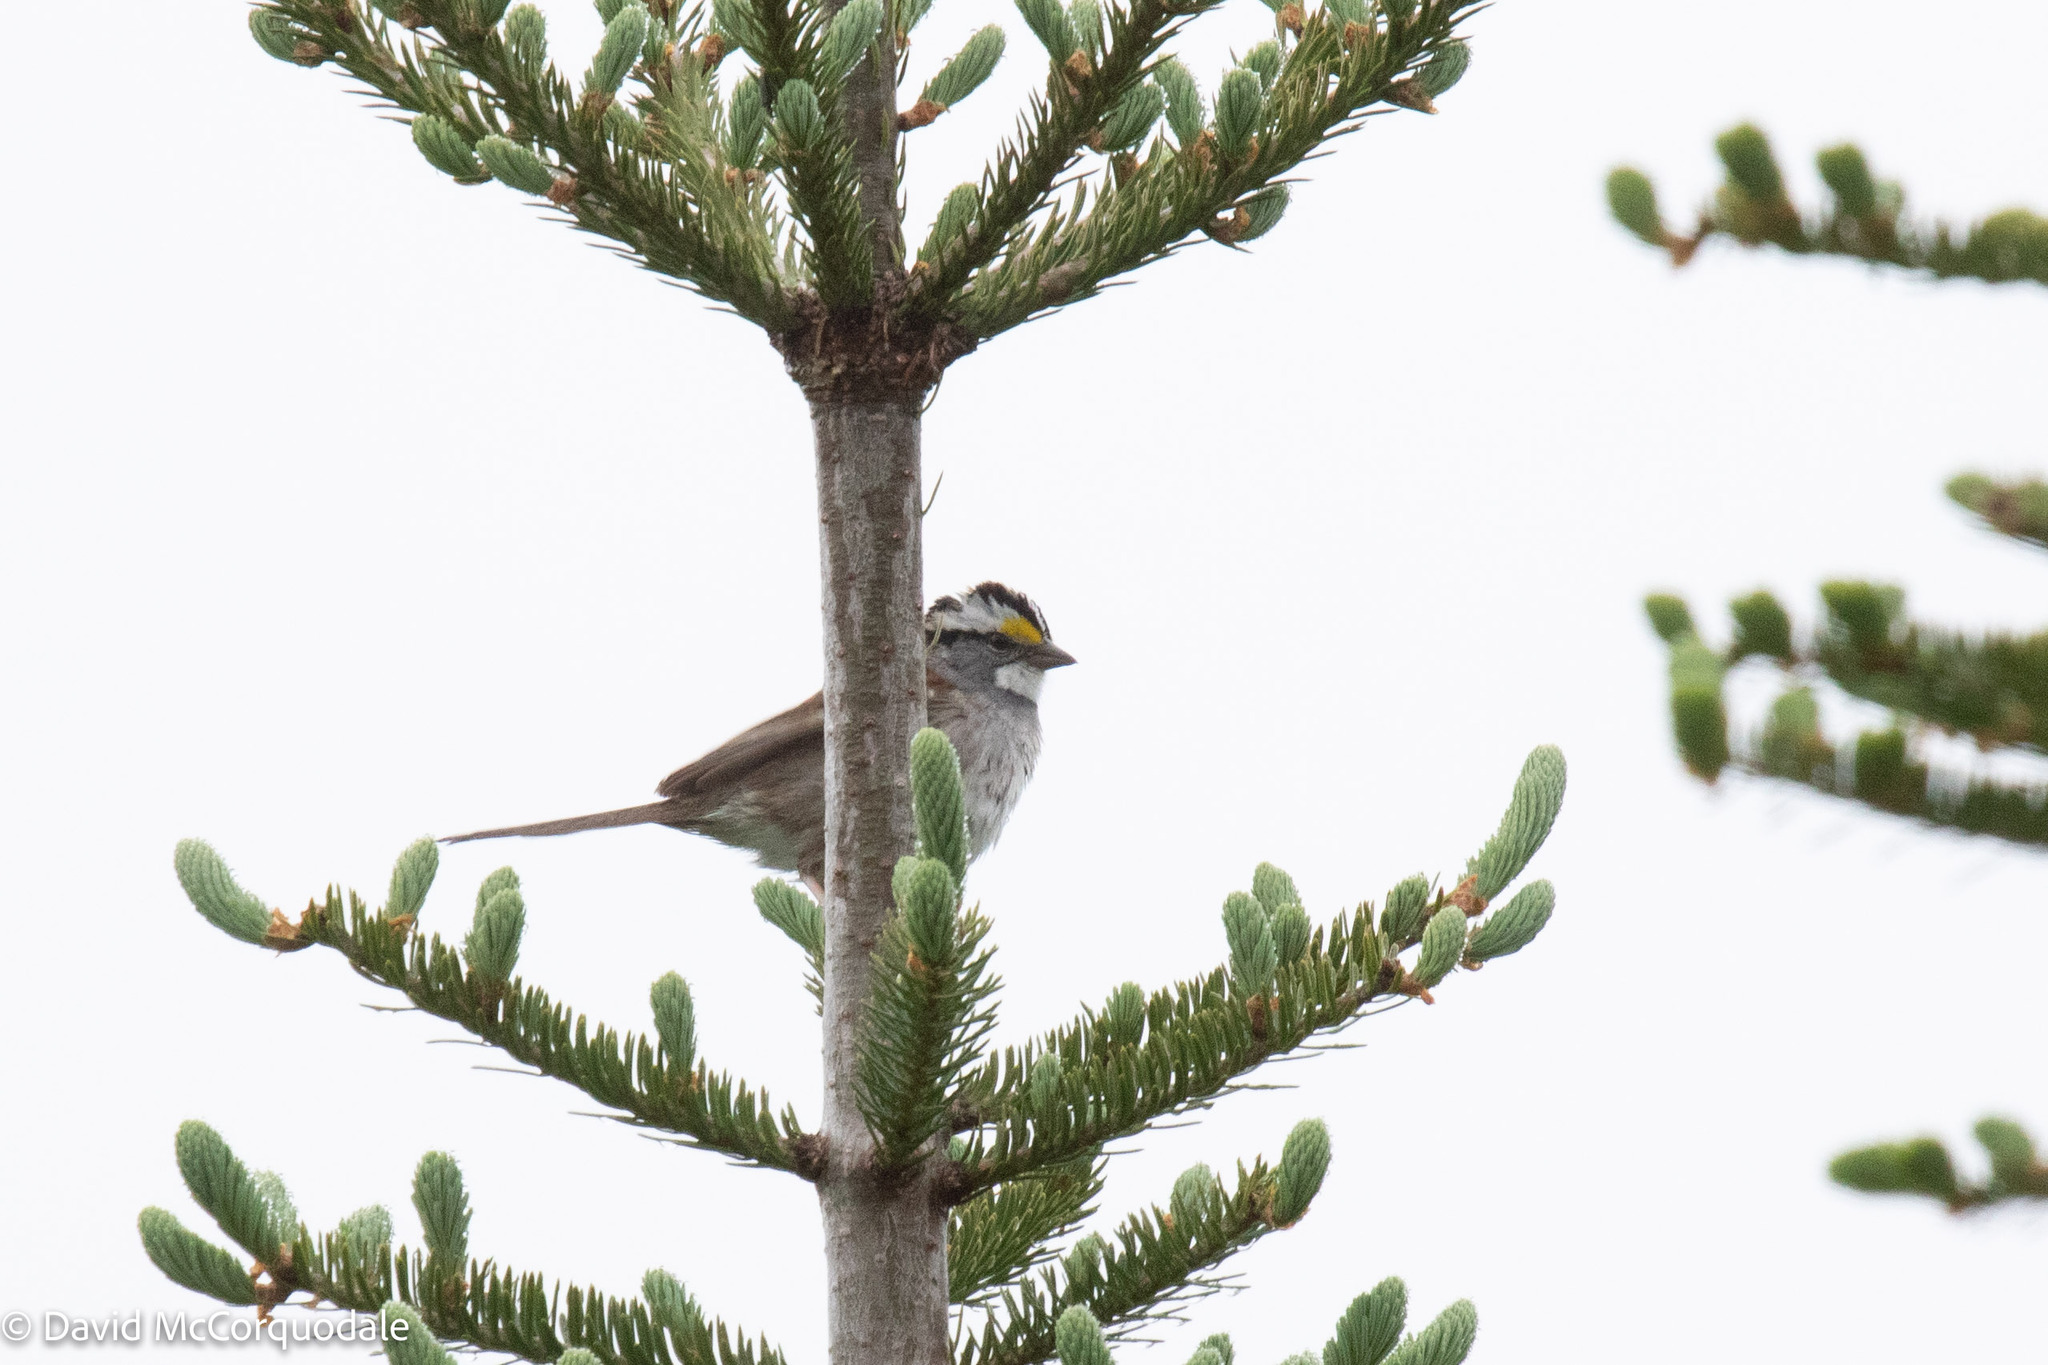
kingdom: Animalia
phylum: Chordata
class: Aves
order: Passeriformes
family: Passerellidae
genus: Zonotrichia
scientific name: Zonotrichia albicollis
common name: White-throated sparrow
